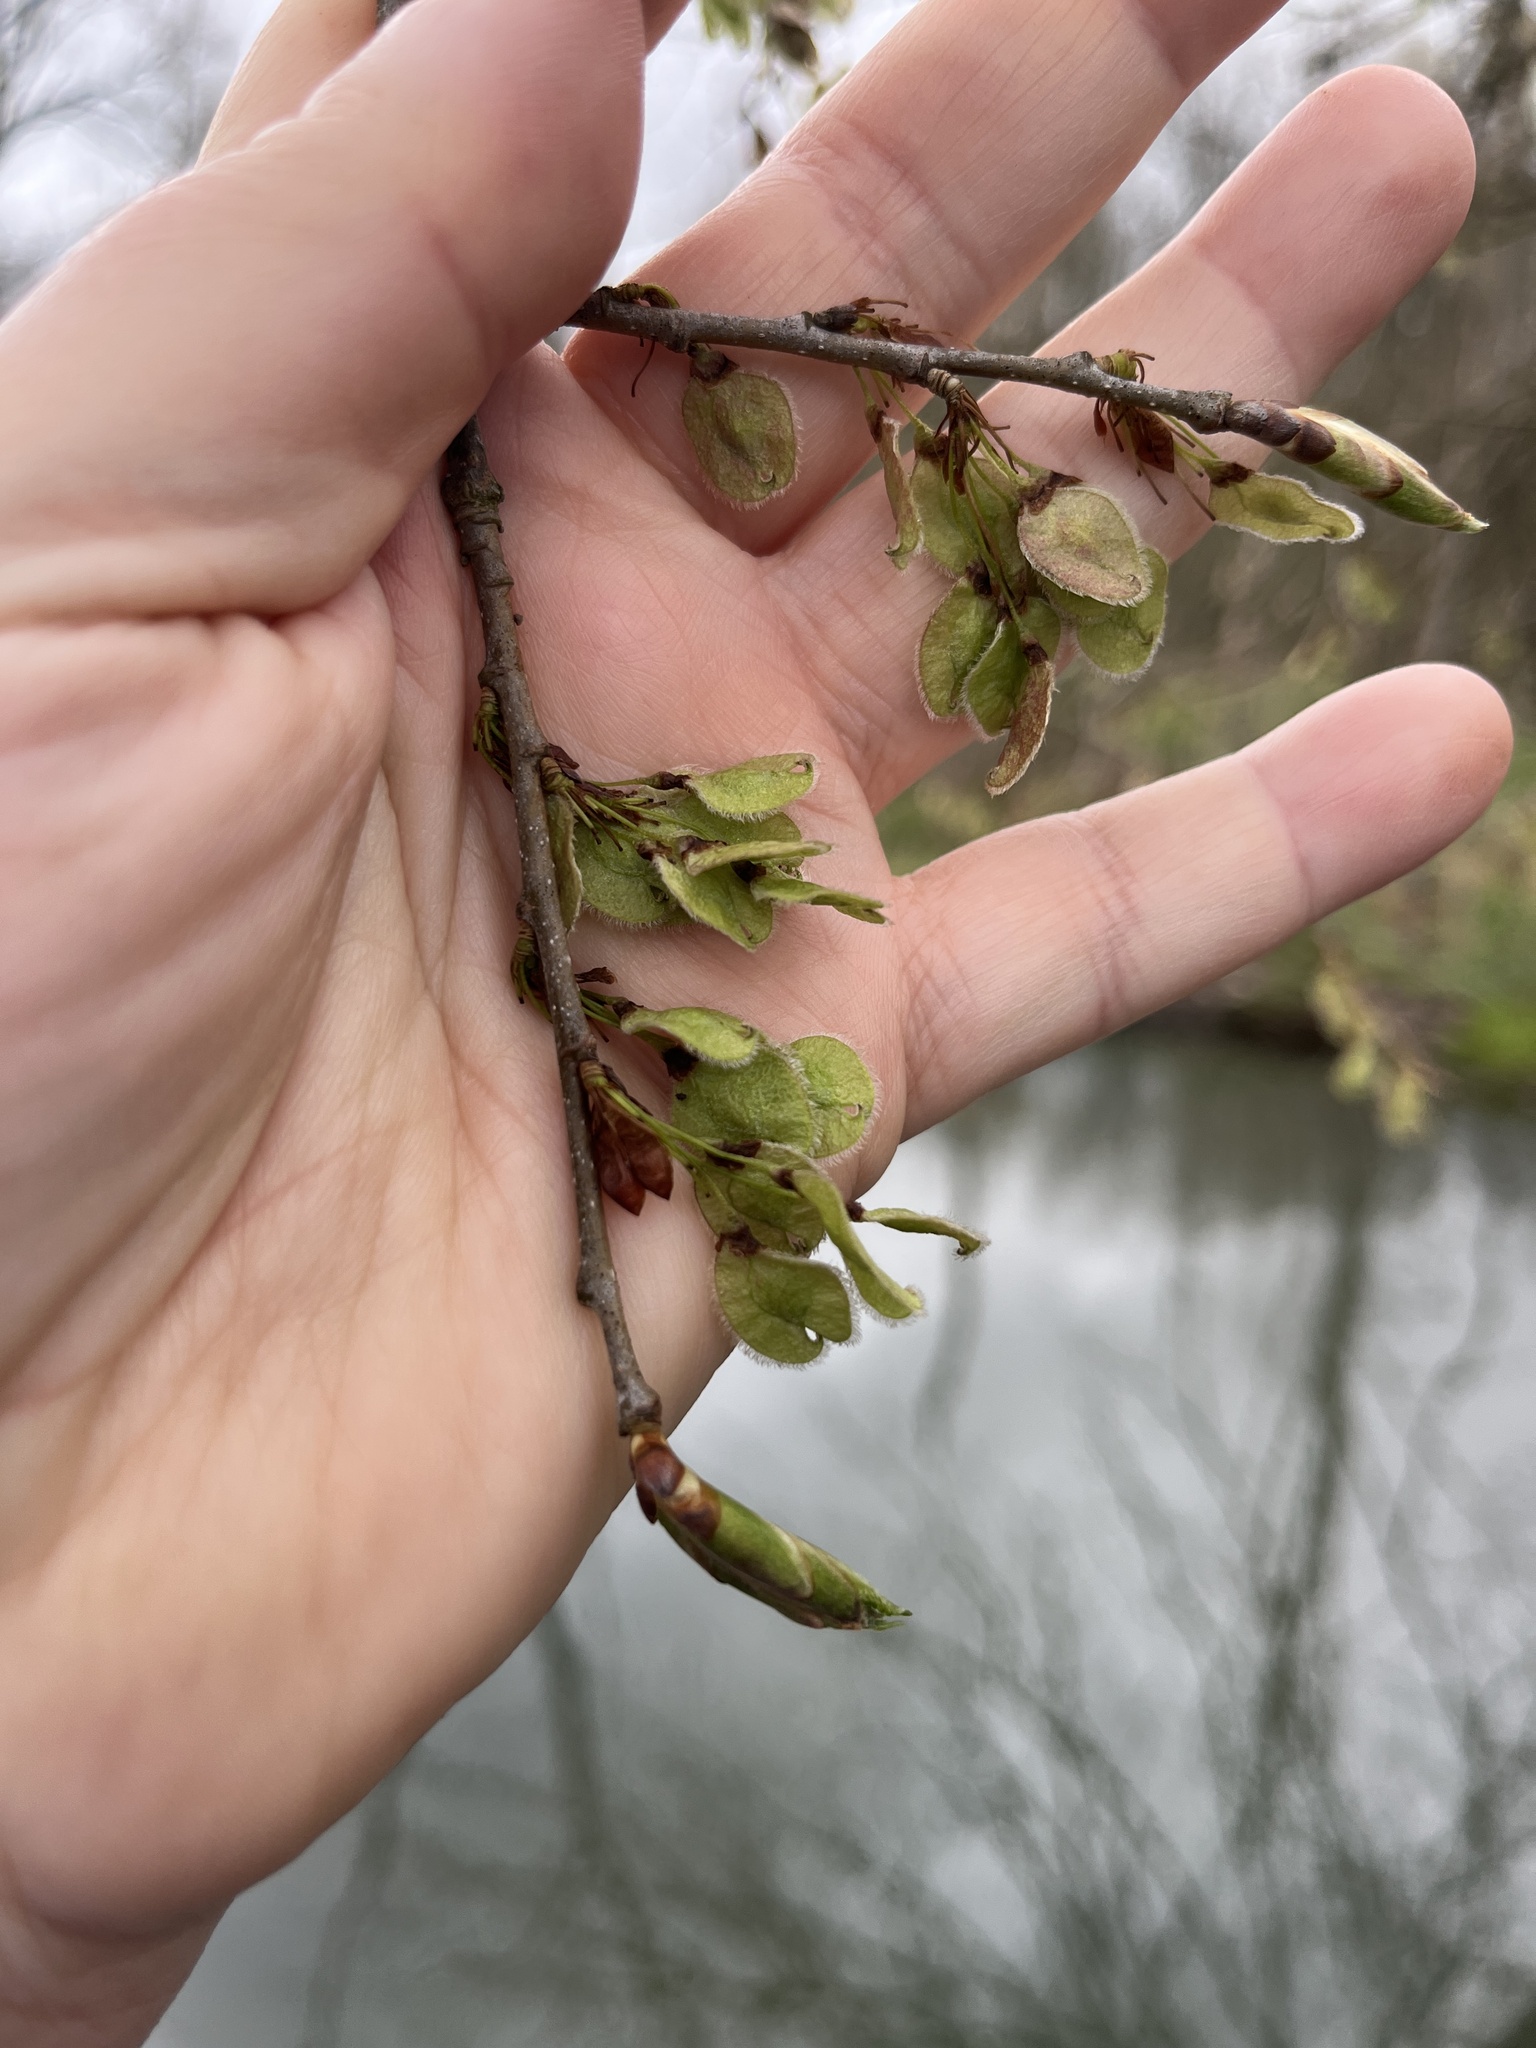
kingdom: Plantae
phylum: Tracheophyta
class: Magnoliopsida
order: Rosales
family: Ulmaceae
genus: Ulmus
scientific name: Ulmus americana
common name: American elm
